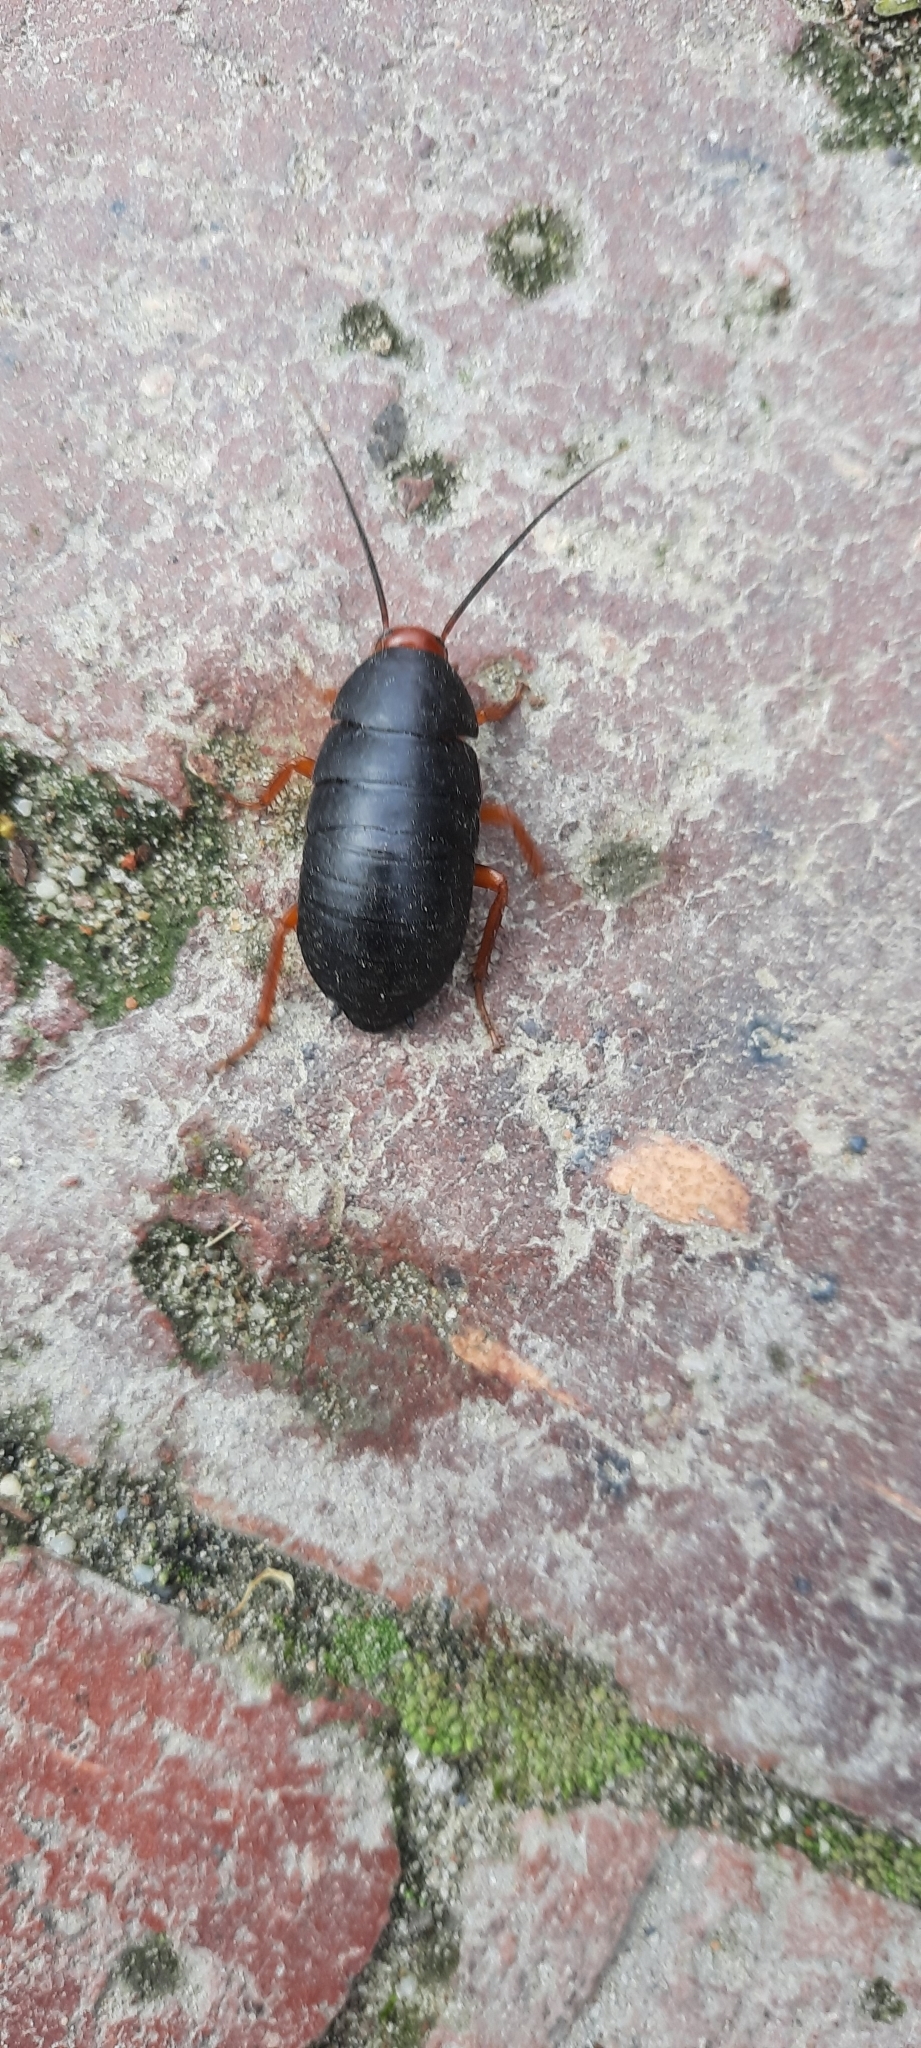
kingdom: Animalia
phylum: Arthropoda
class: Insecta
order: Blattodea
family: Blattidae
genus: Deropeltis
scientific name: Deropeltis erythrocephala
